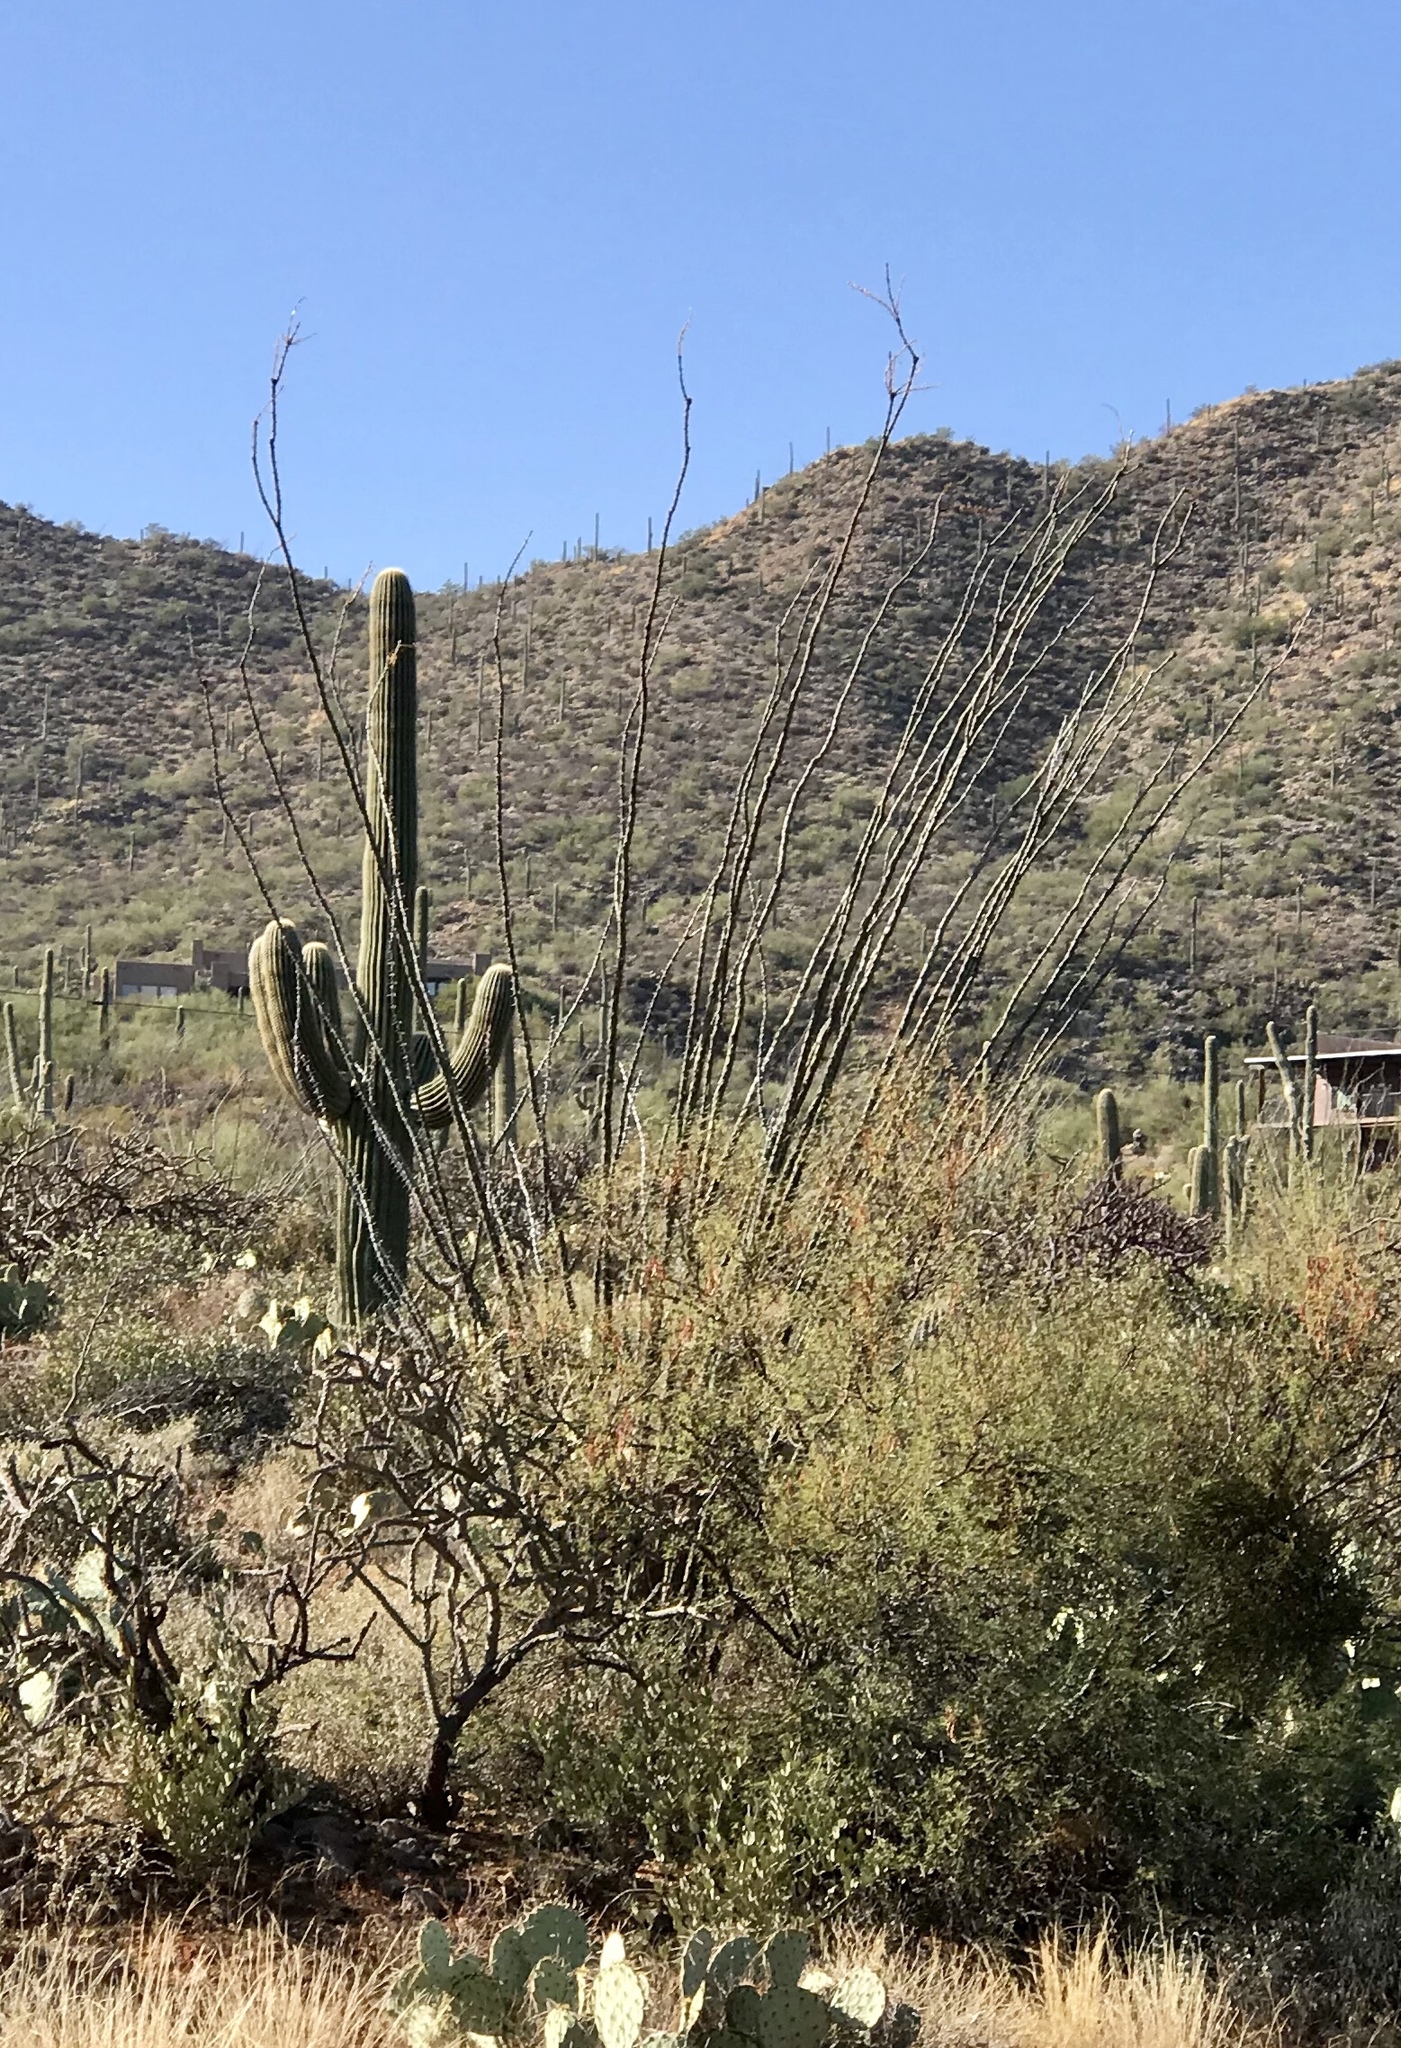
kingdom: Plantae
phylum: Tracheophyta
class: Magnoliopsida
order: Ericales
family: Fouquieriaceae
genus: Fouquieria
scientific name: Fouquieria splendens
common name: Vine-cactus
